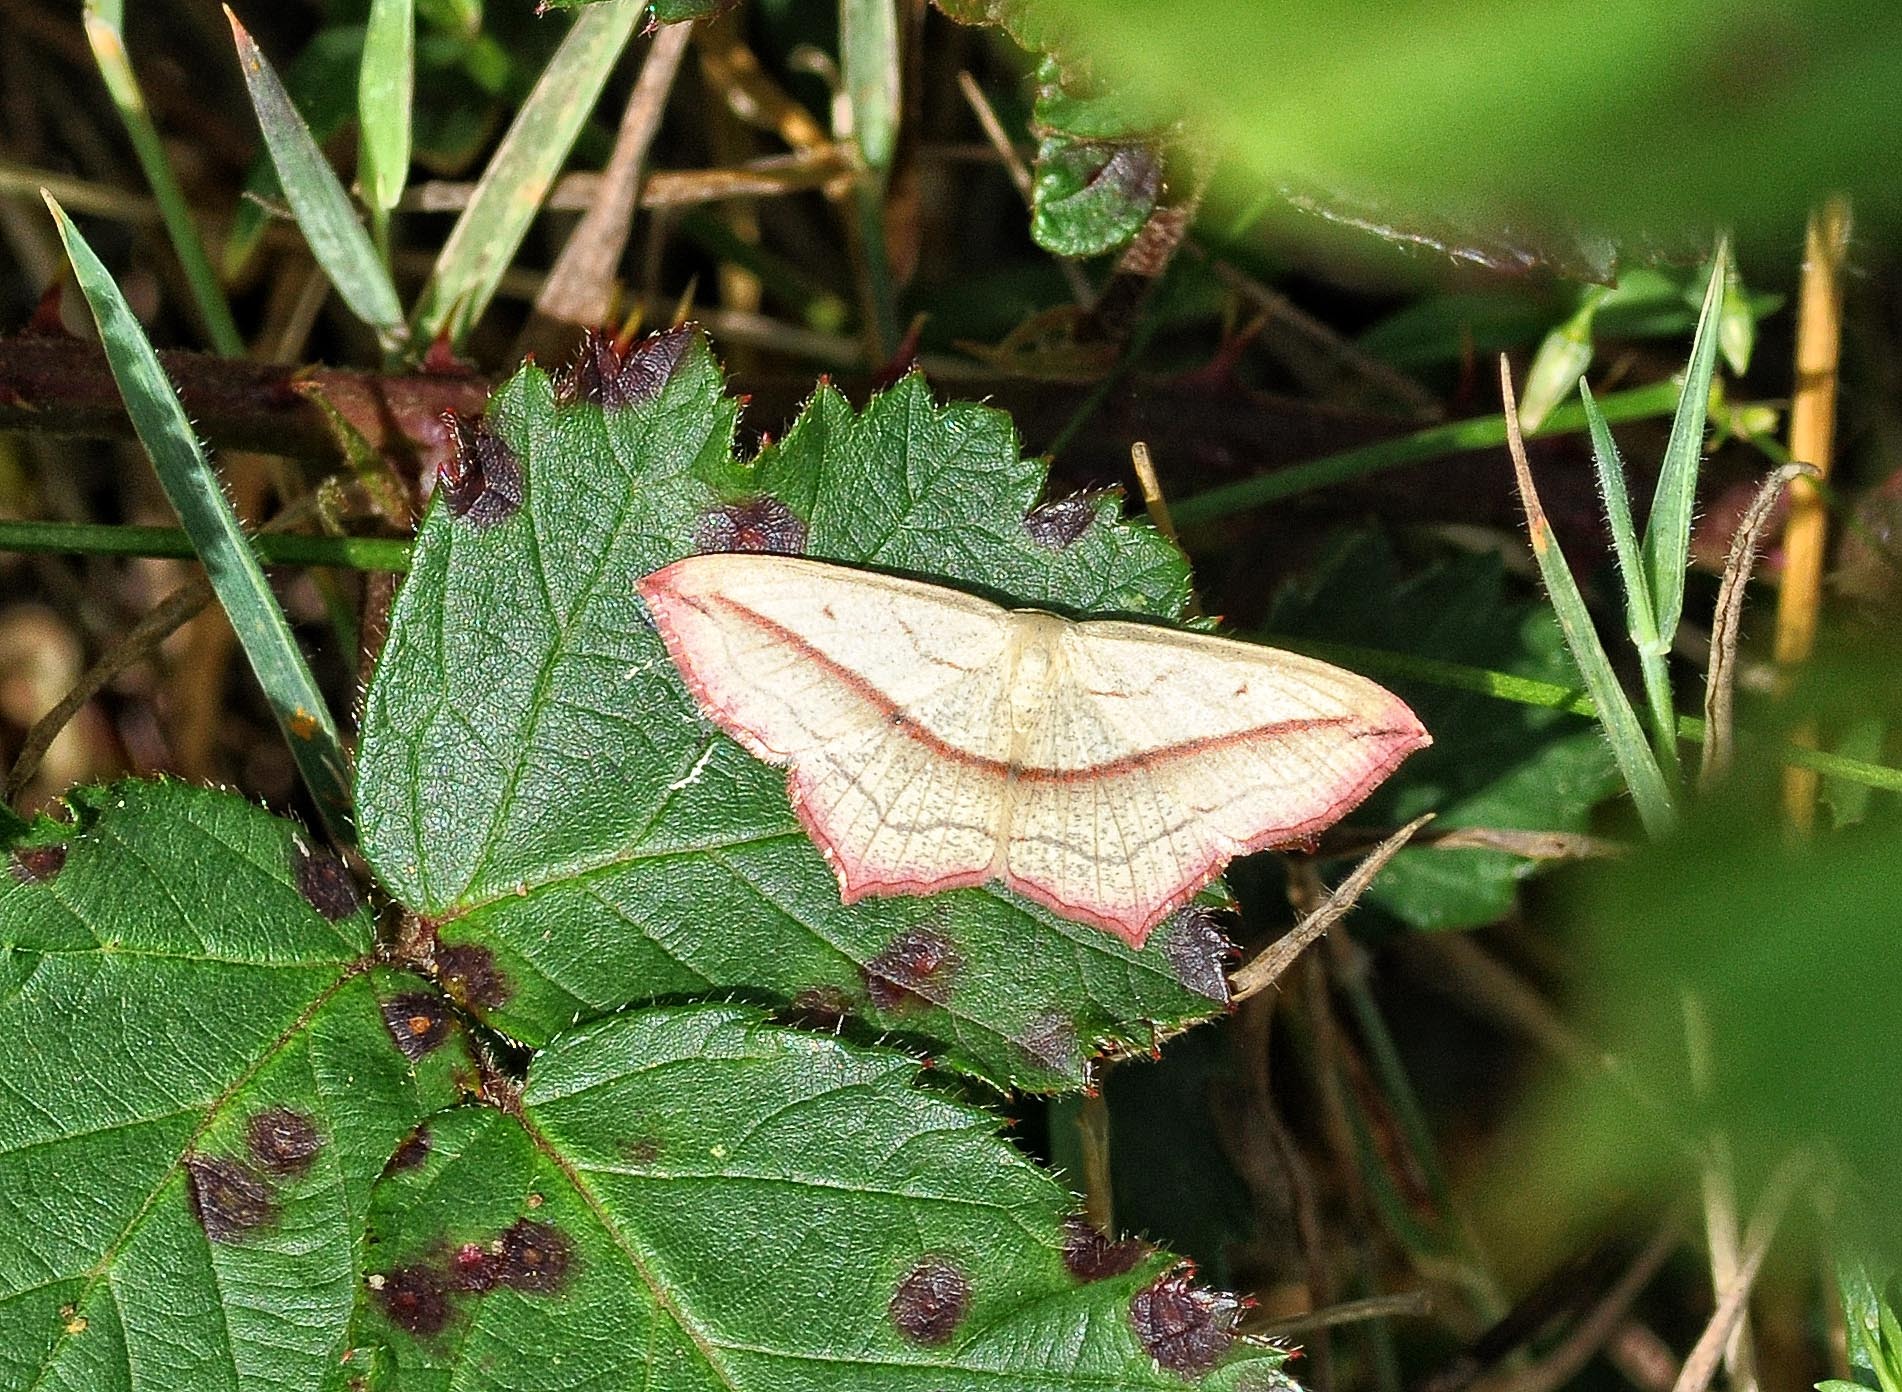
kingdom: Animalia
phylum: Arthropoda
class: Insecta
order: Lepidoptera
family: Geometridae
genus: Timandra
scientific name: Timandra comae
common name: Blood-vein
